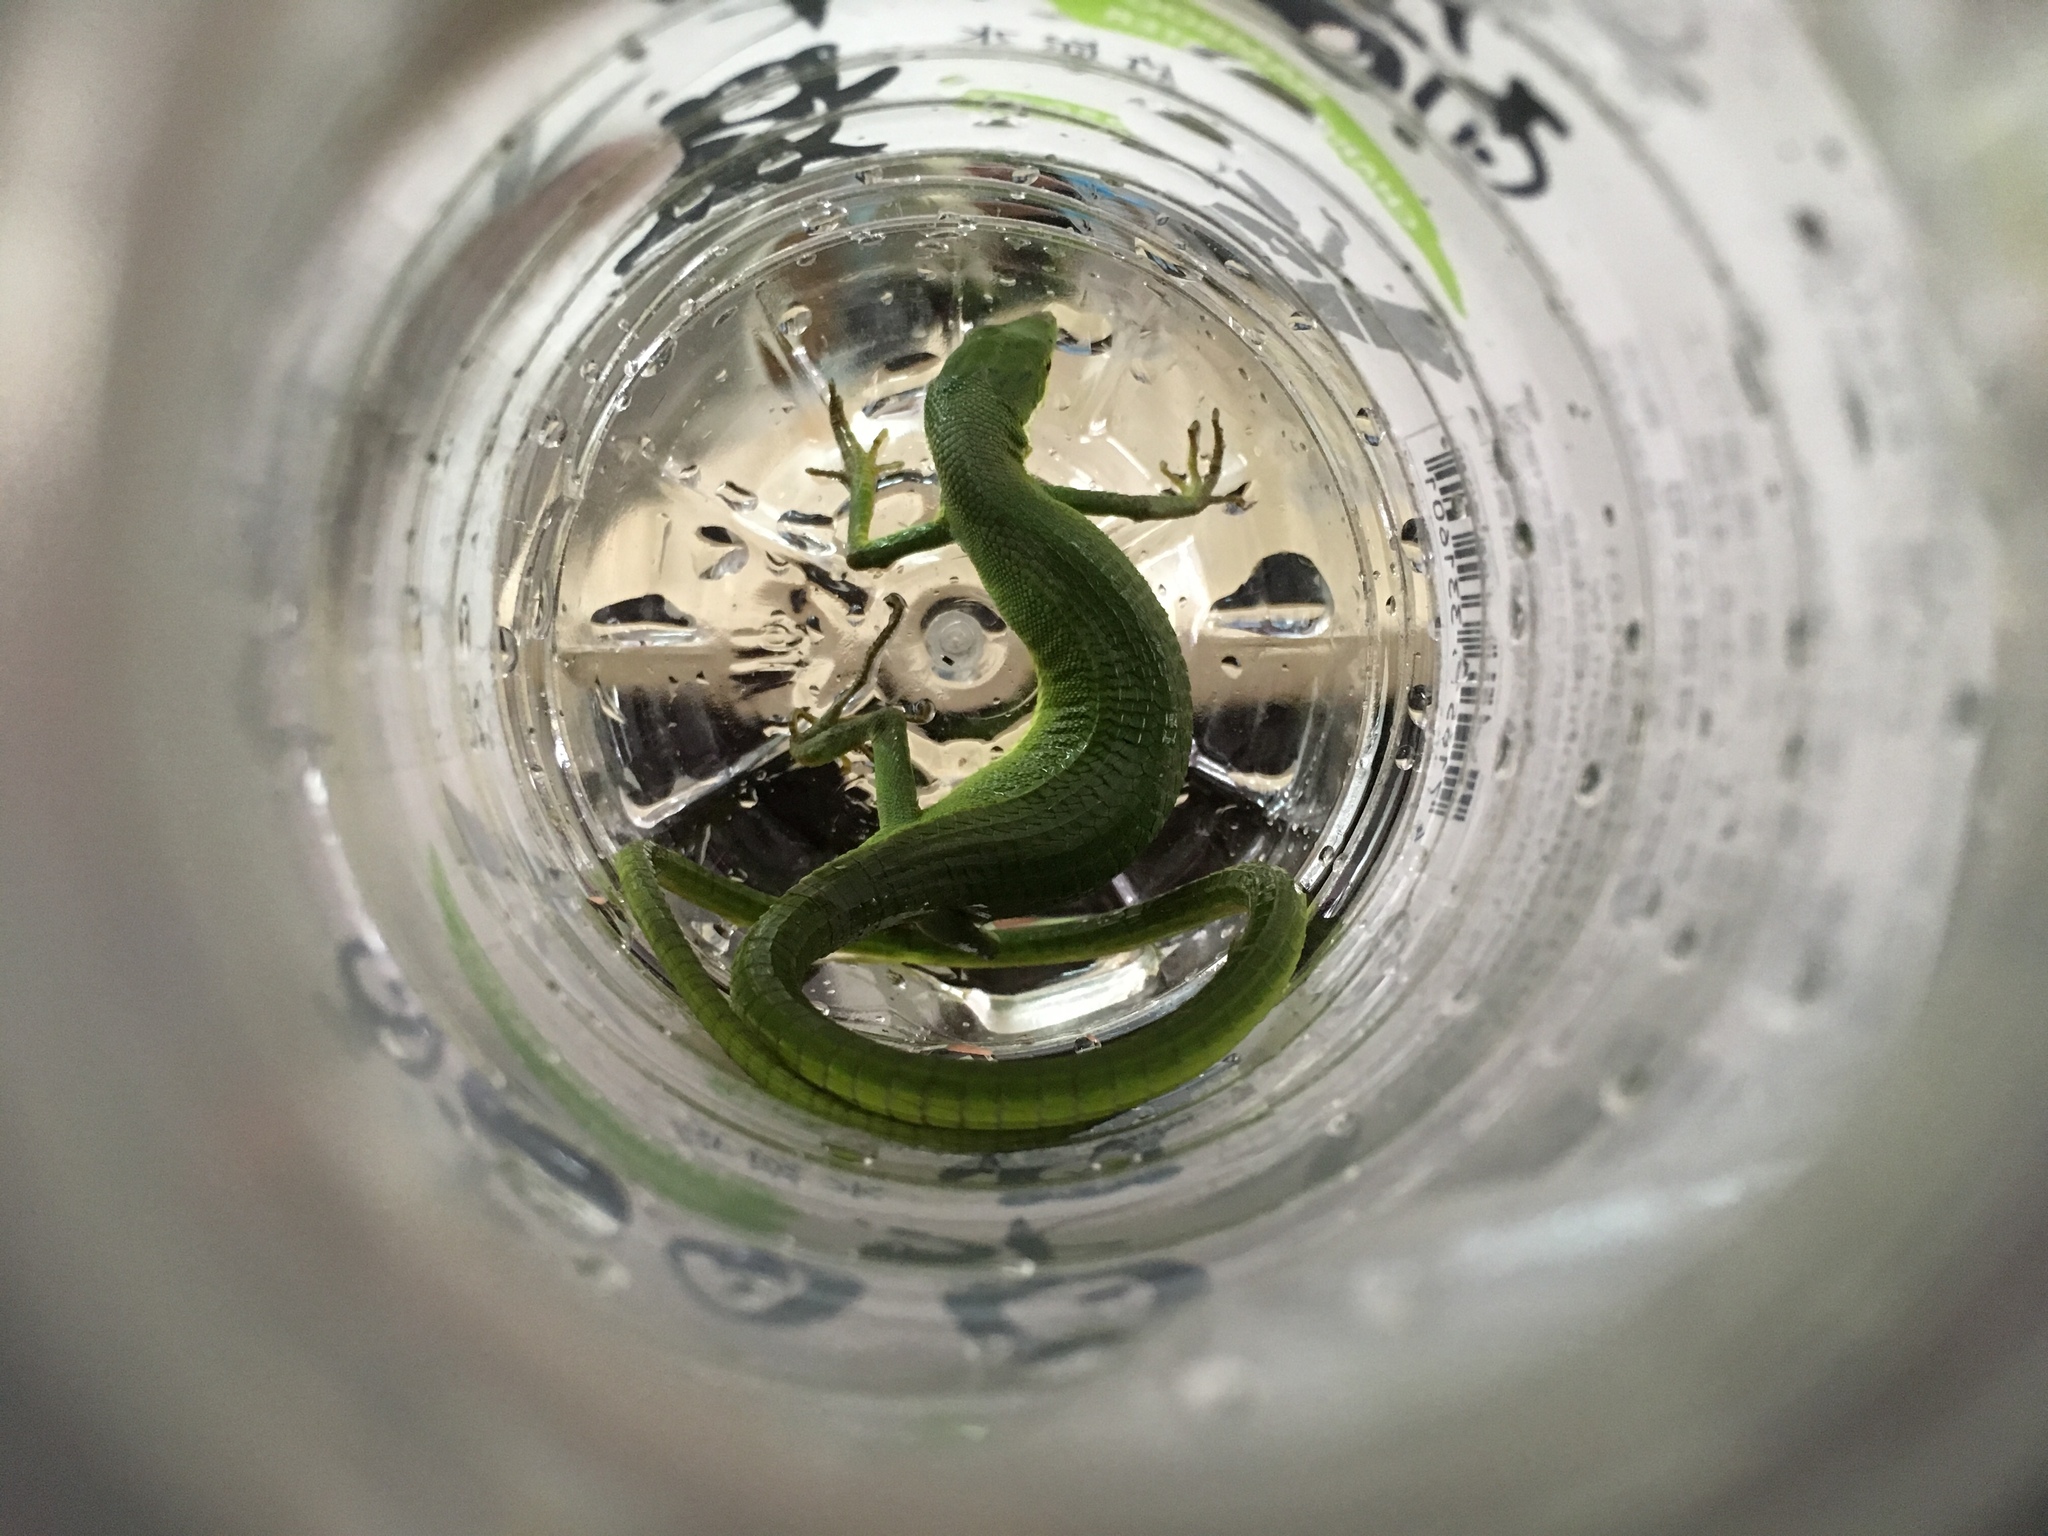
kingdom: Animalia
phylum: Chordata
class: Squamata
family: Lacertidae
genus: Takydromus
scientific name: Takydromus sauteri
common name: Koshun grass lizard
